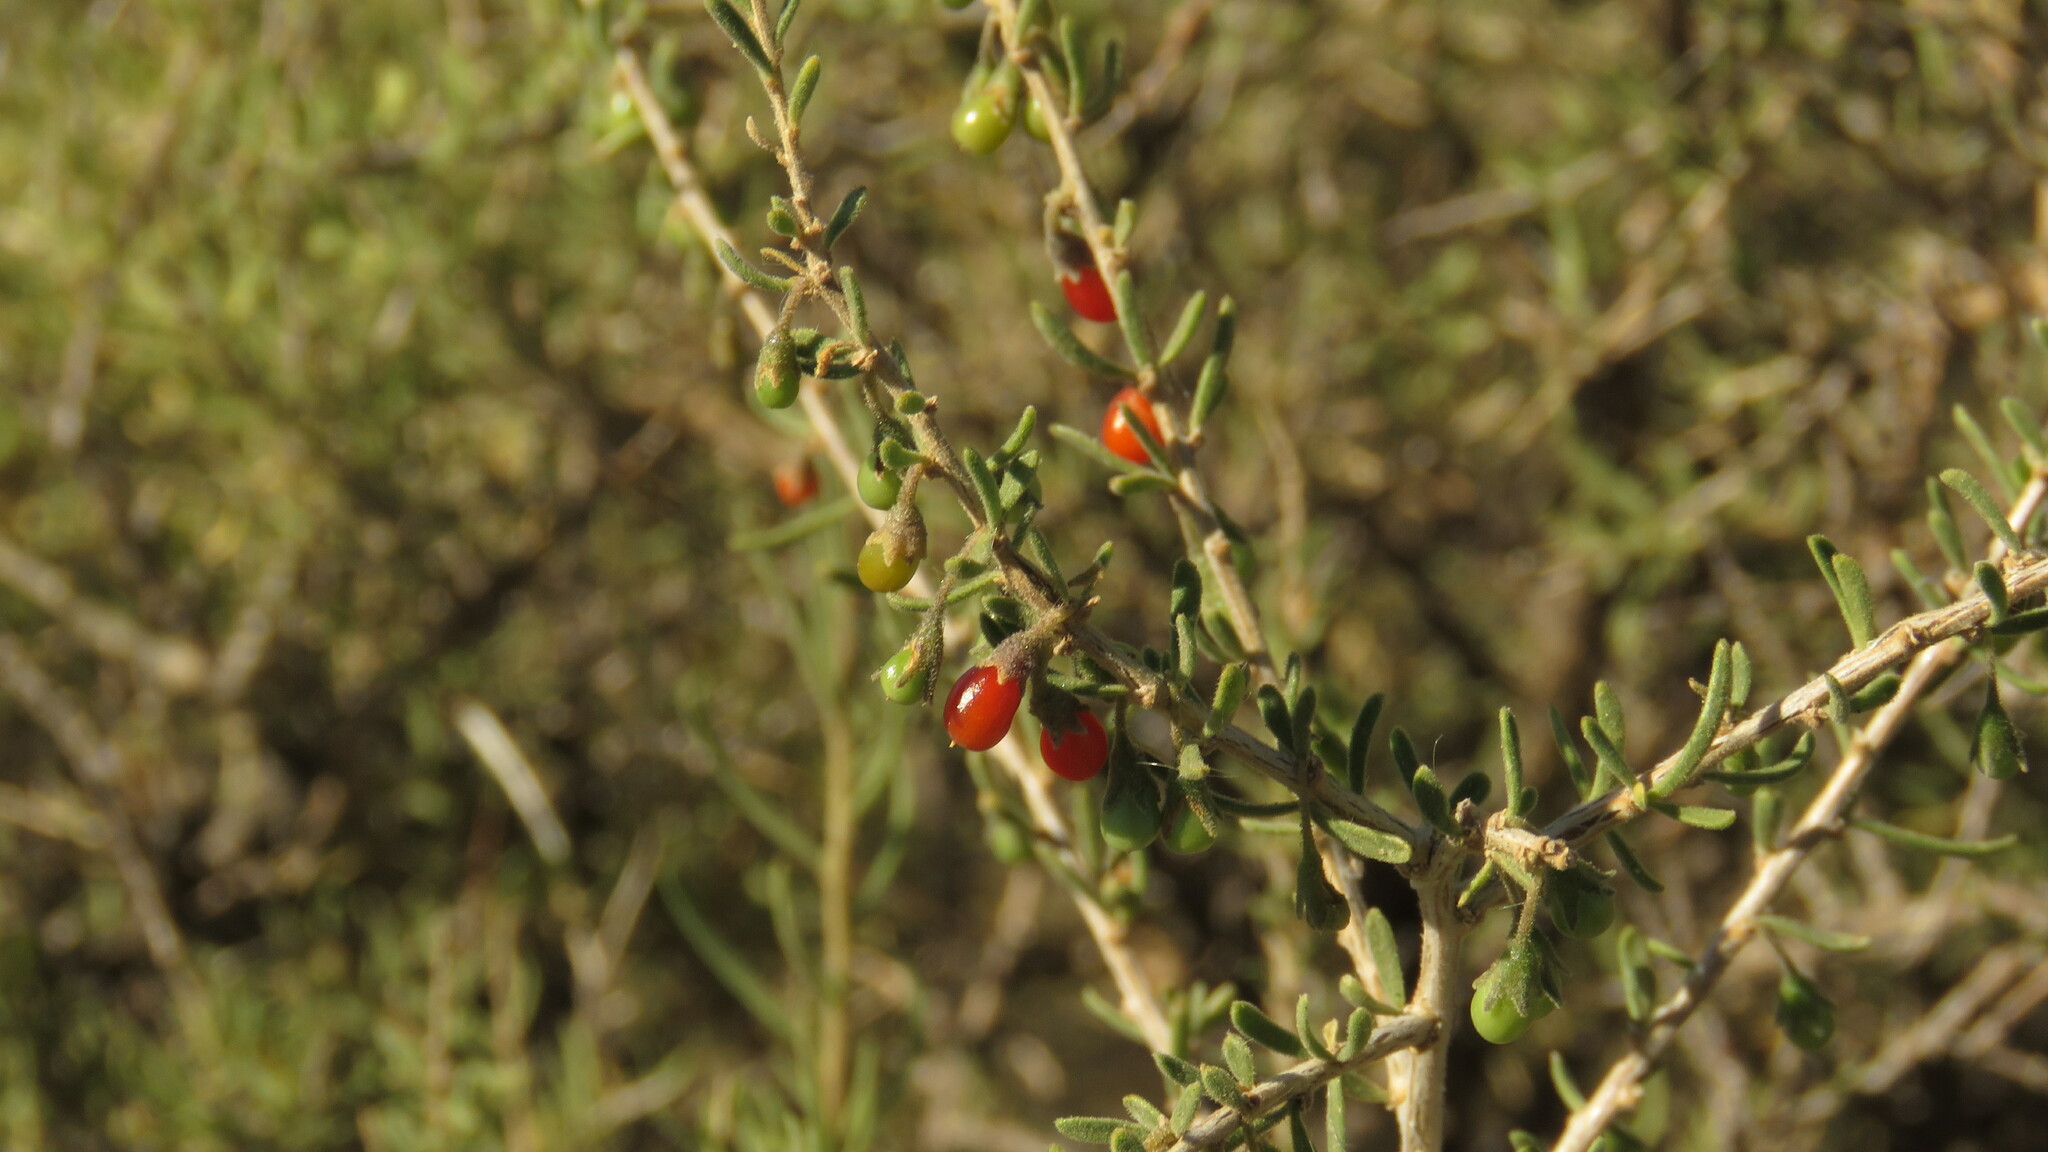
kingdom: Plantae
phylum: Tracheophyta
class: Magnoliopsida
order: Solanales
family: Solanaceae
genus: Lycium
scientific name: Lycium chilense
